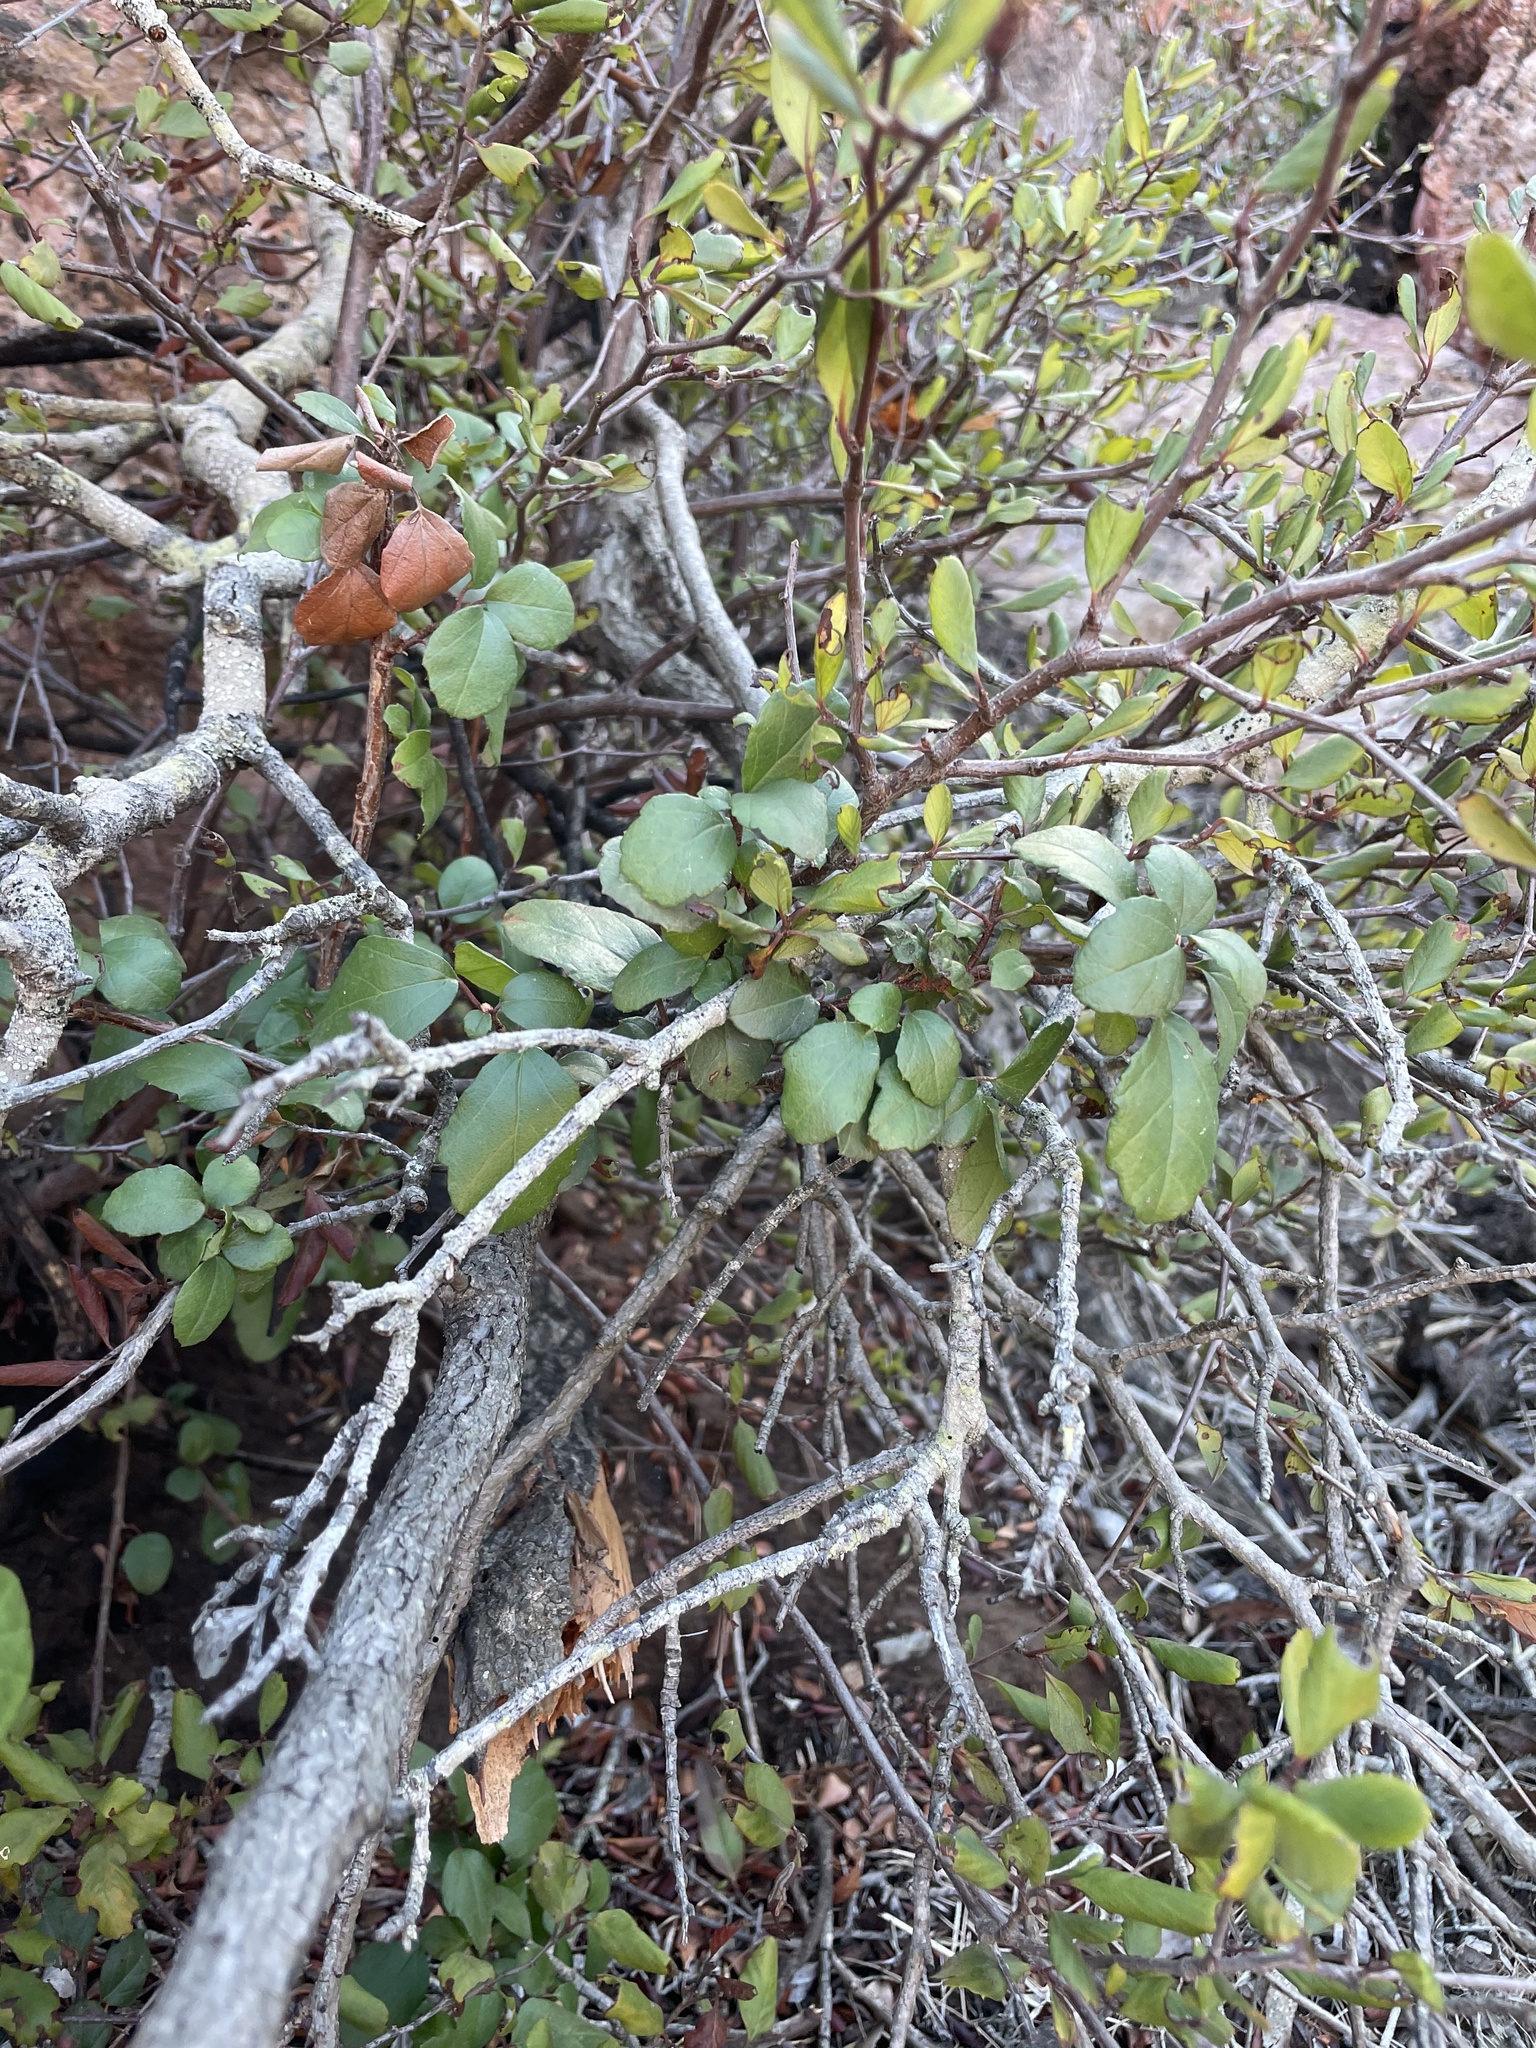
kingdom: Plantae
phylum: Tracheophyta
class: Magnoliopsida
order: Saxifragales
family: Grossulariaceae
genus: Ribes
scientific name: Ribes viburnifolium
